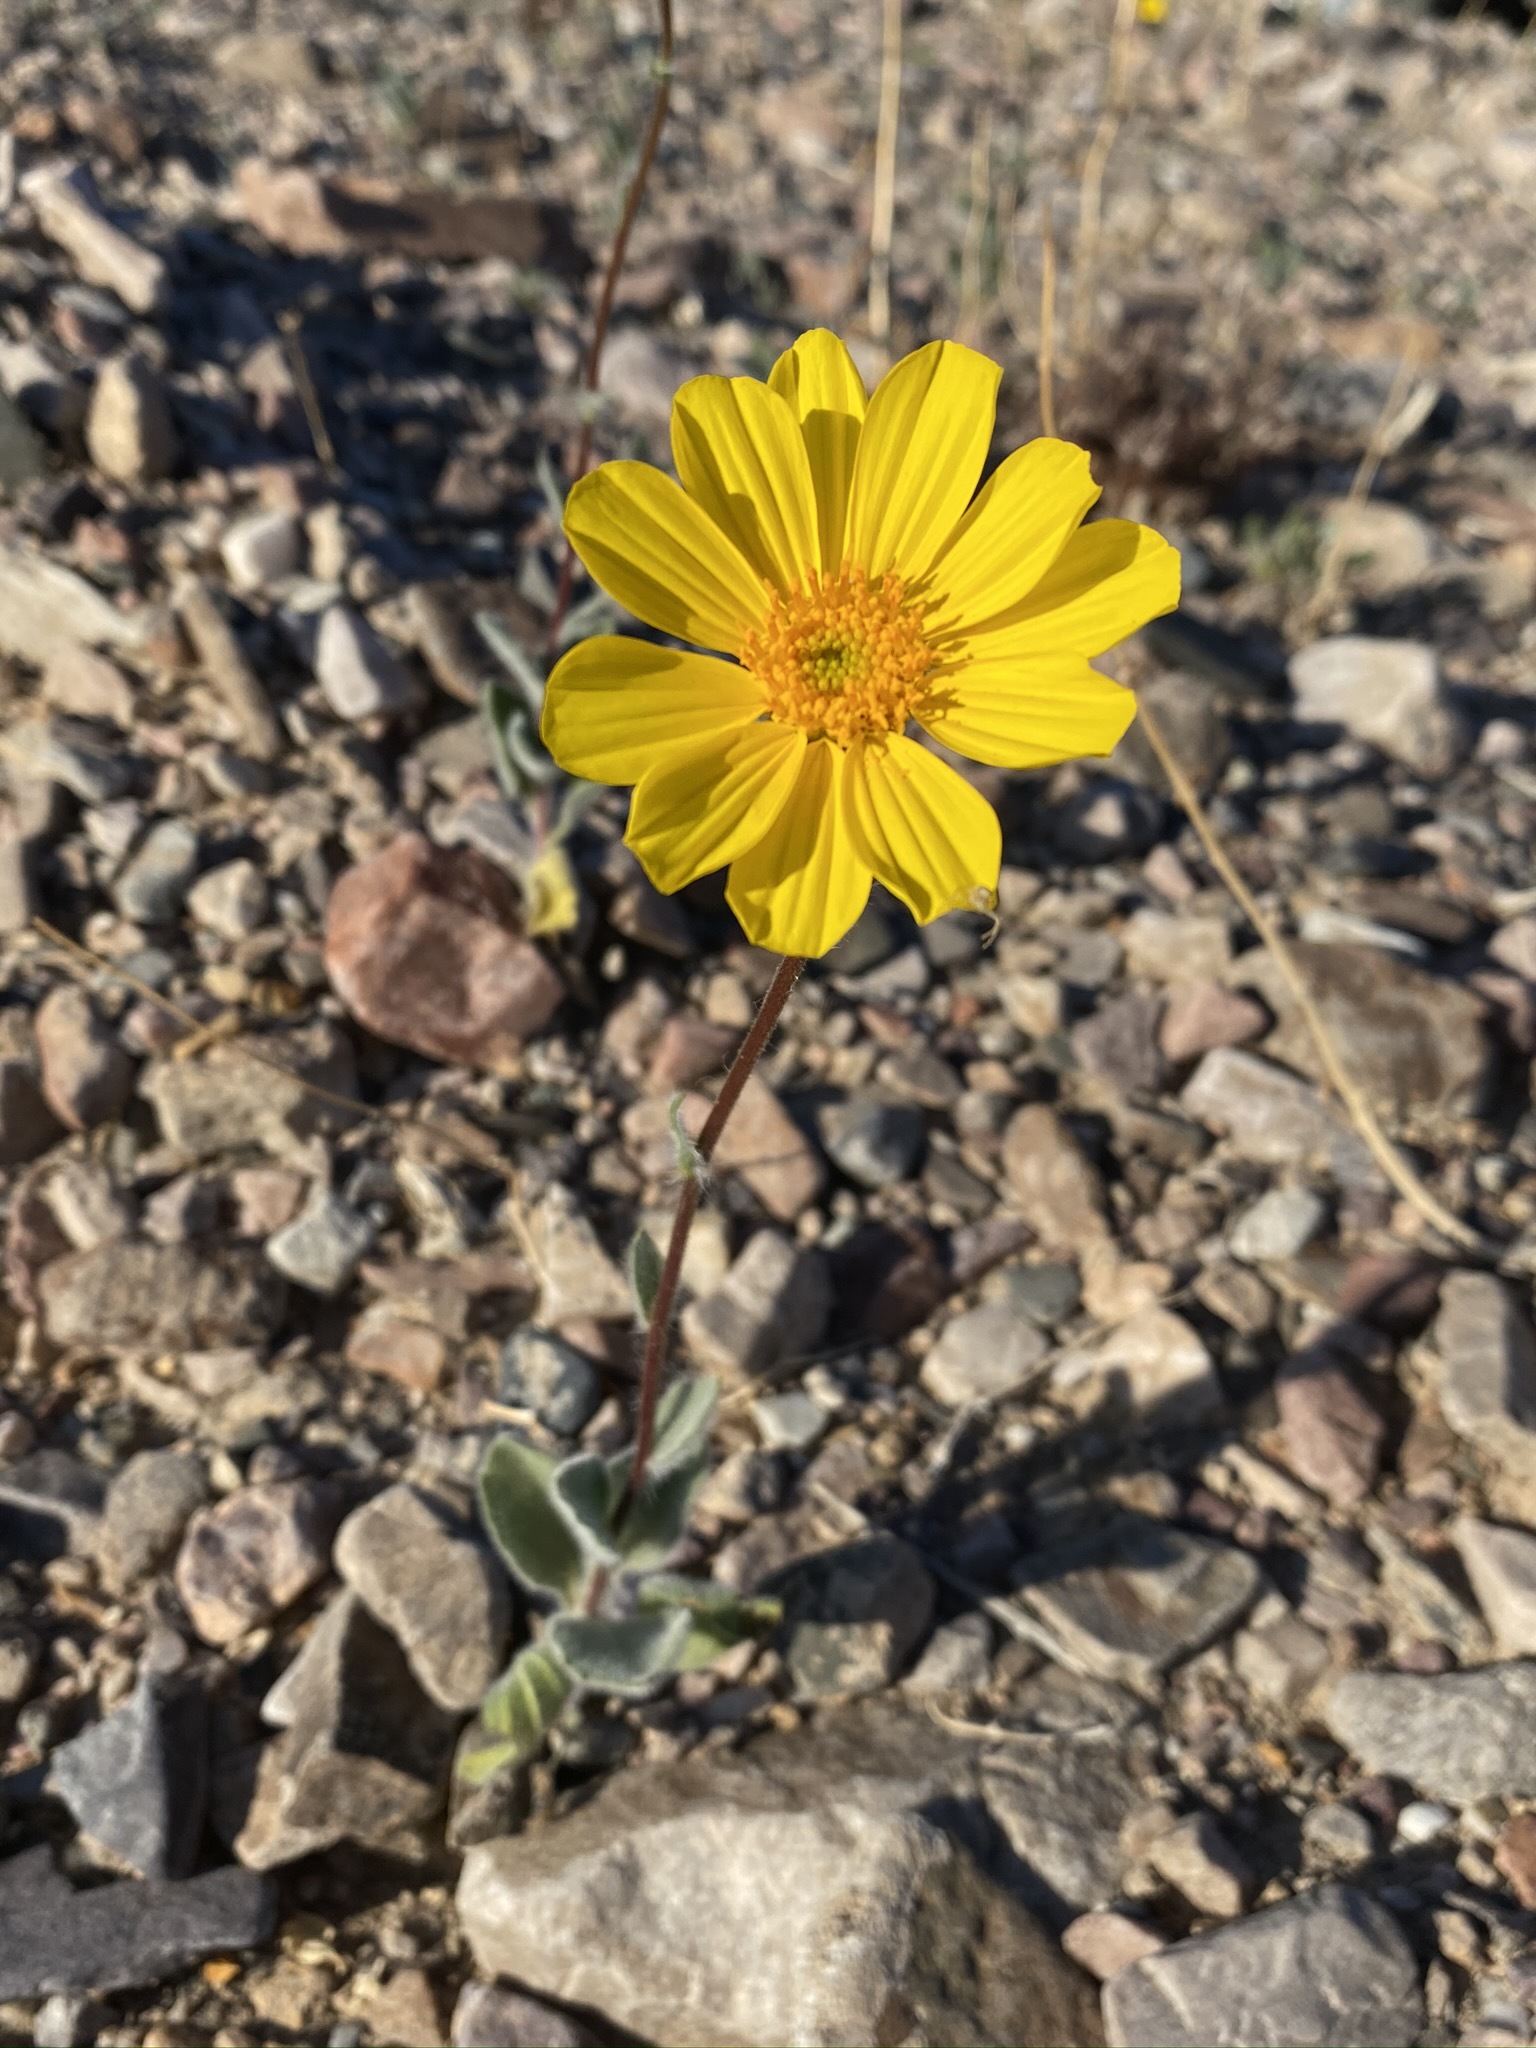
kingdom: Plantae
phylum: Tracheophyta
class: Magnoliopsida
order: Asterales
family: Asteraceae
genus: Geraea
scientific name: Geraea canescens
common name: Desert-gold
